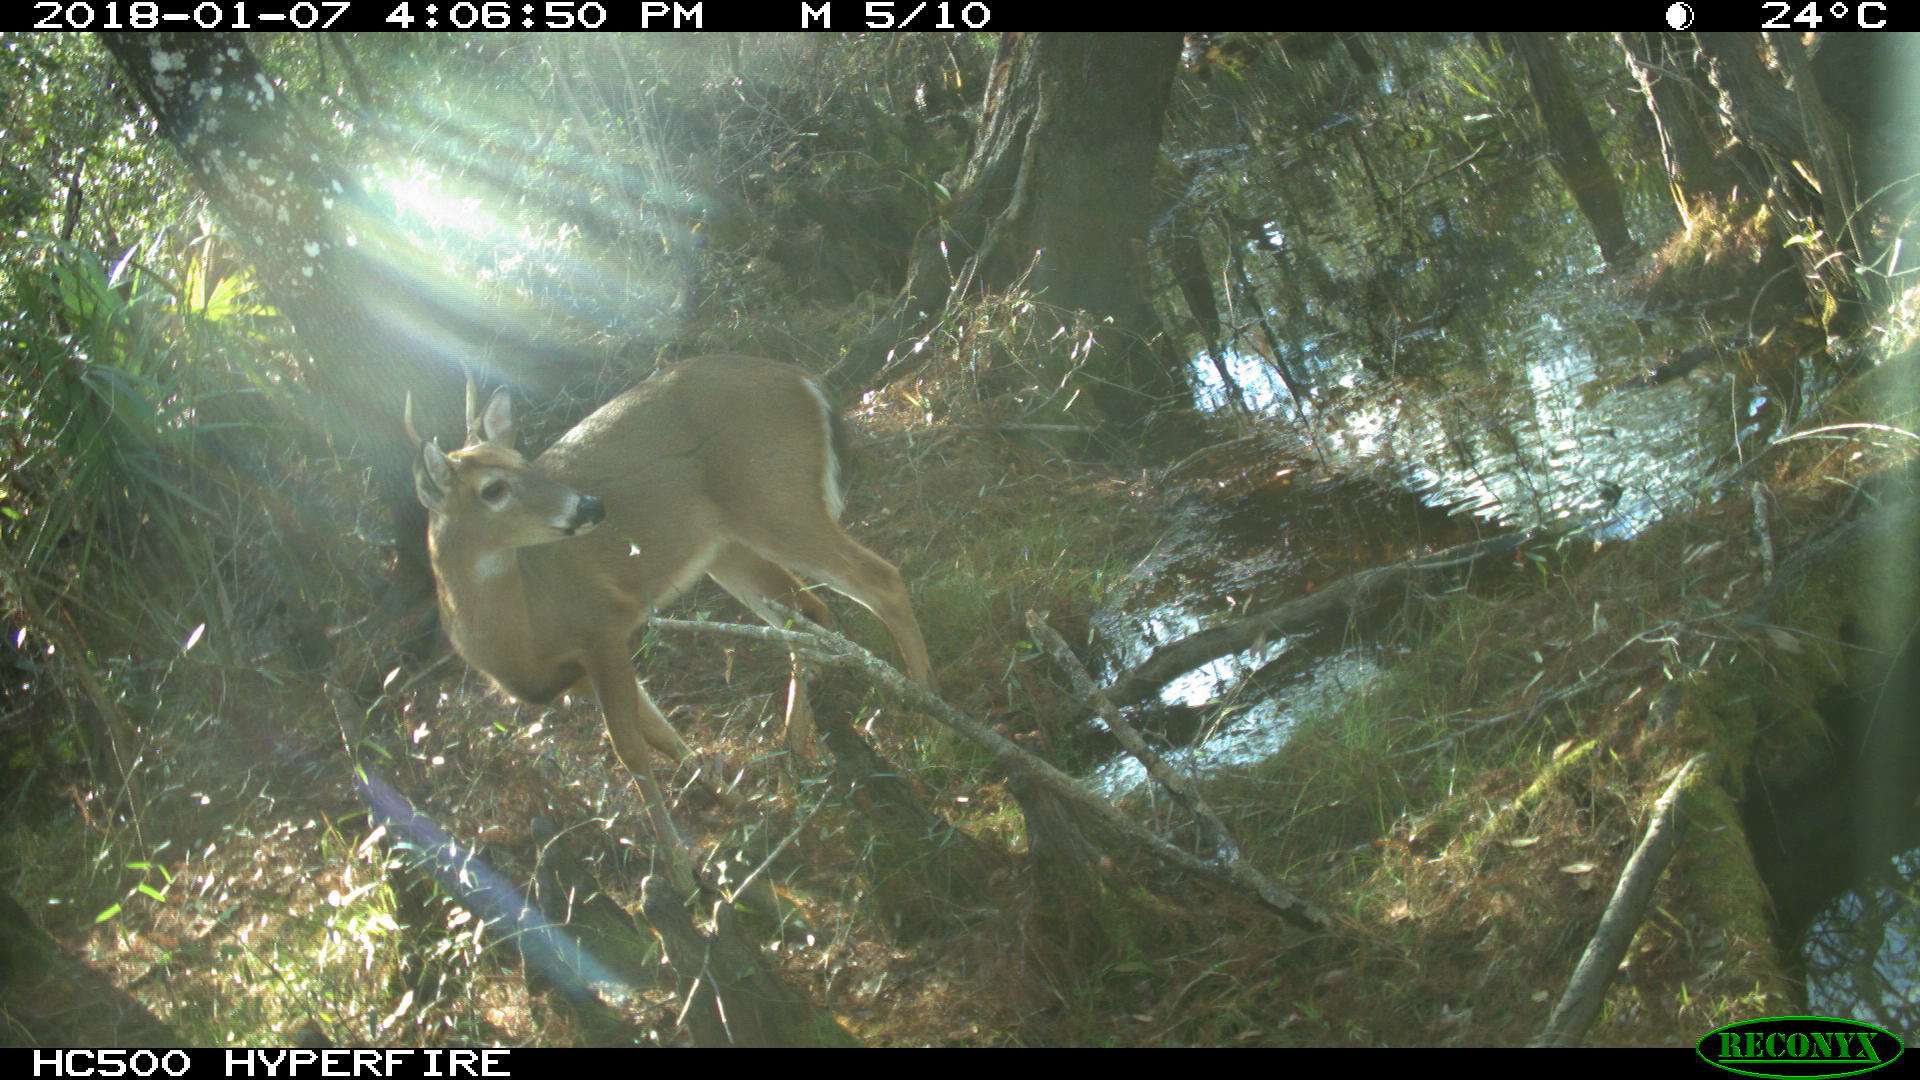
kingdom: Animalia
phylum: Chordata
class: Mammalia
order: Artiodactyla
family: Cervidae
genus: Odocoileus
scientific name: Odocoileus virginianus
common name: White-tailed deer
